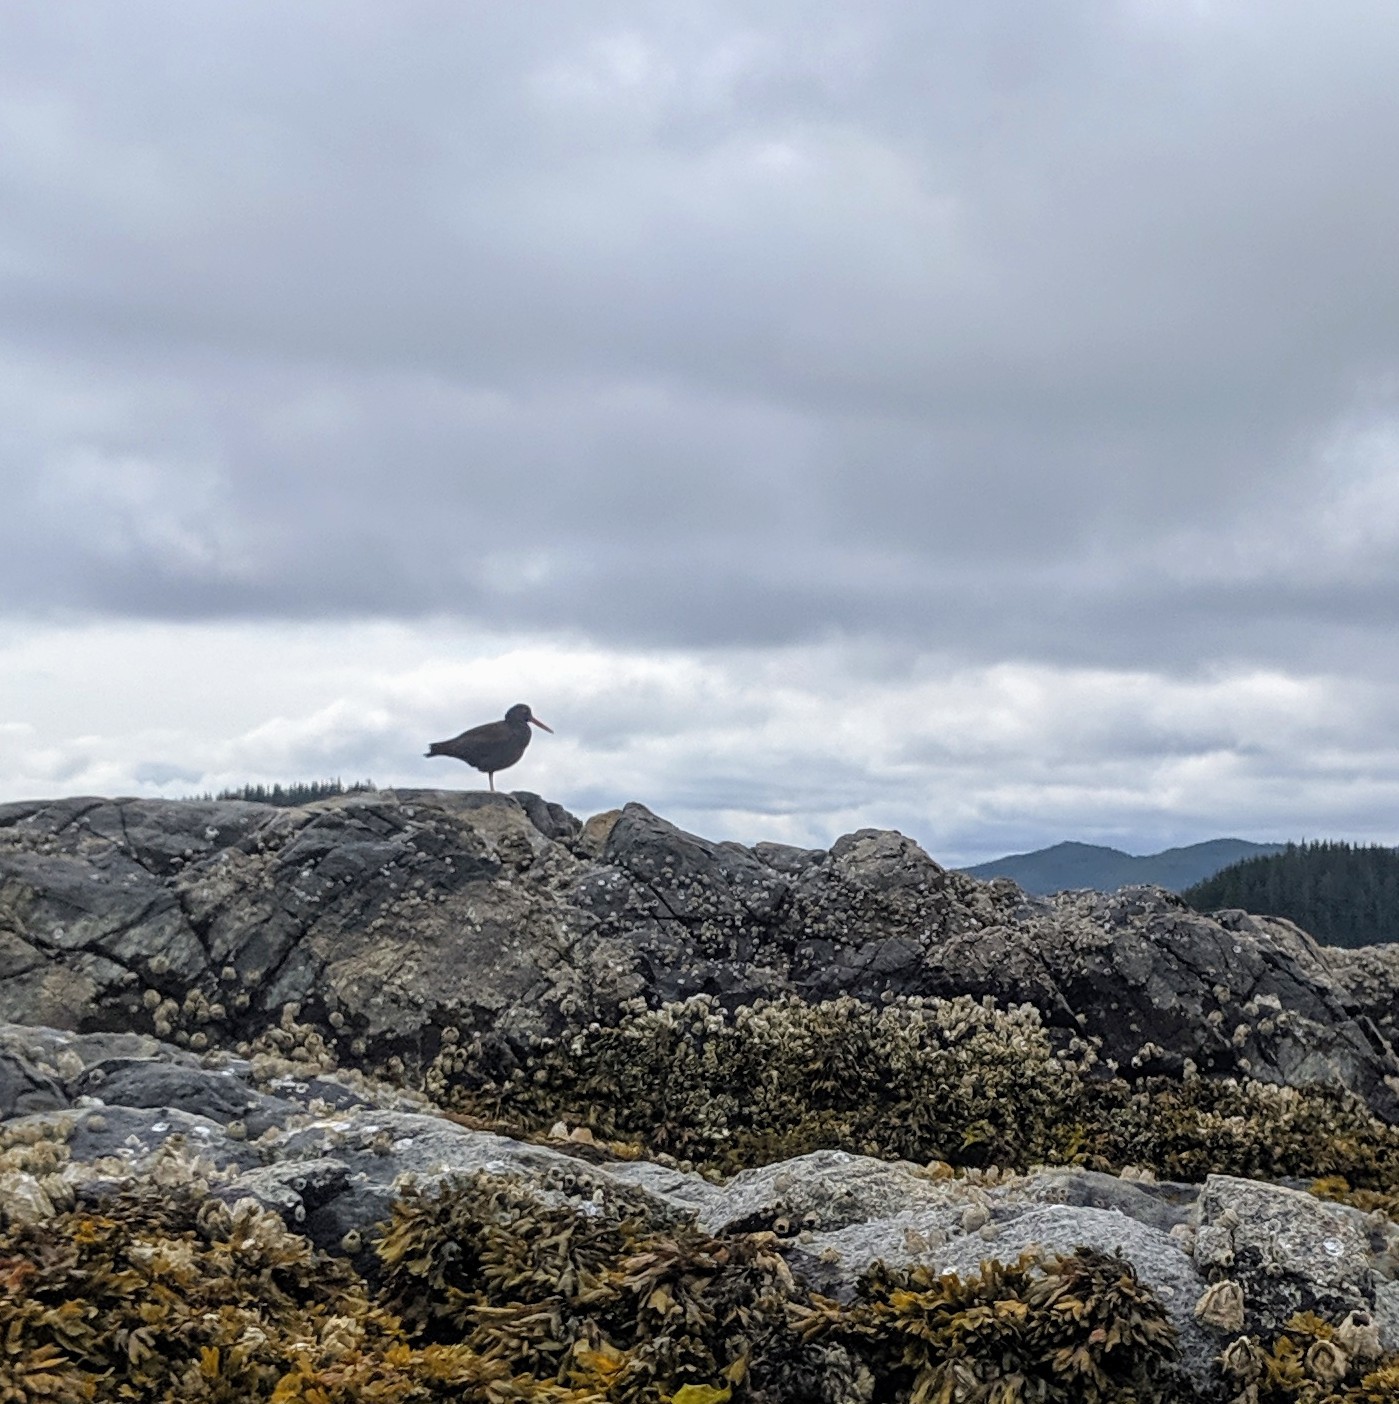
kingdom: Animalia
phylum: Chordata
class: Aves
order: Charadriiformes
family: Haematopodidae
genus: Haematopus
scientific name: Haematopus bachmani
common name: Black oystercatcher
